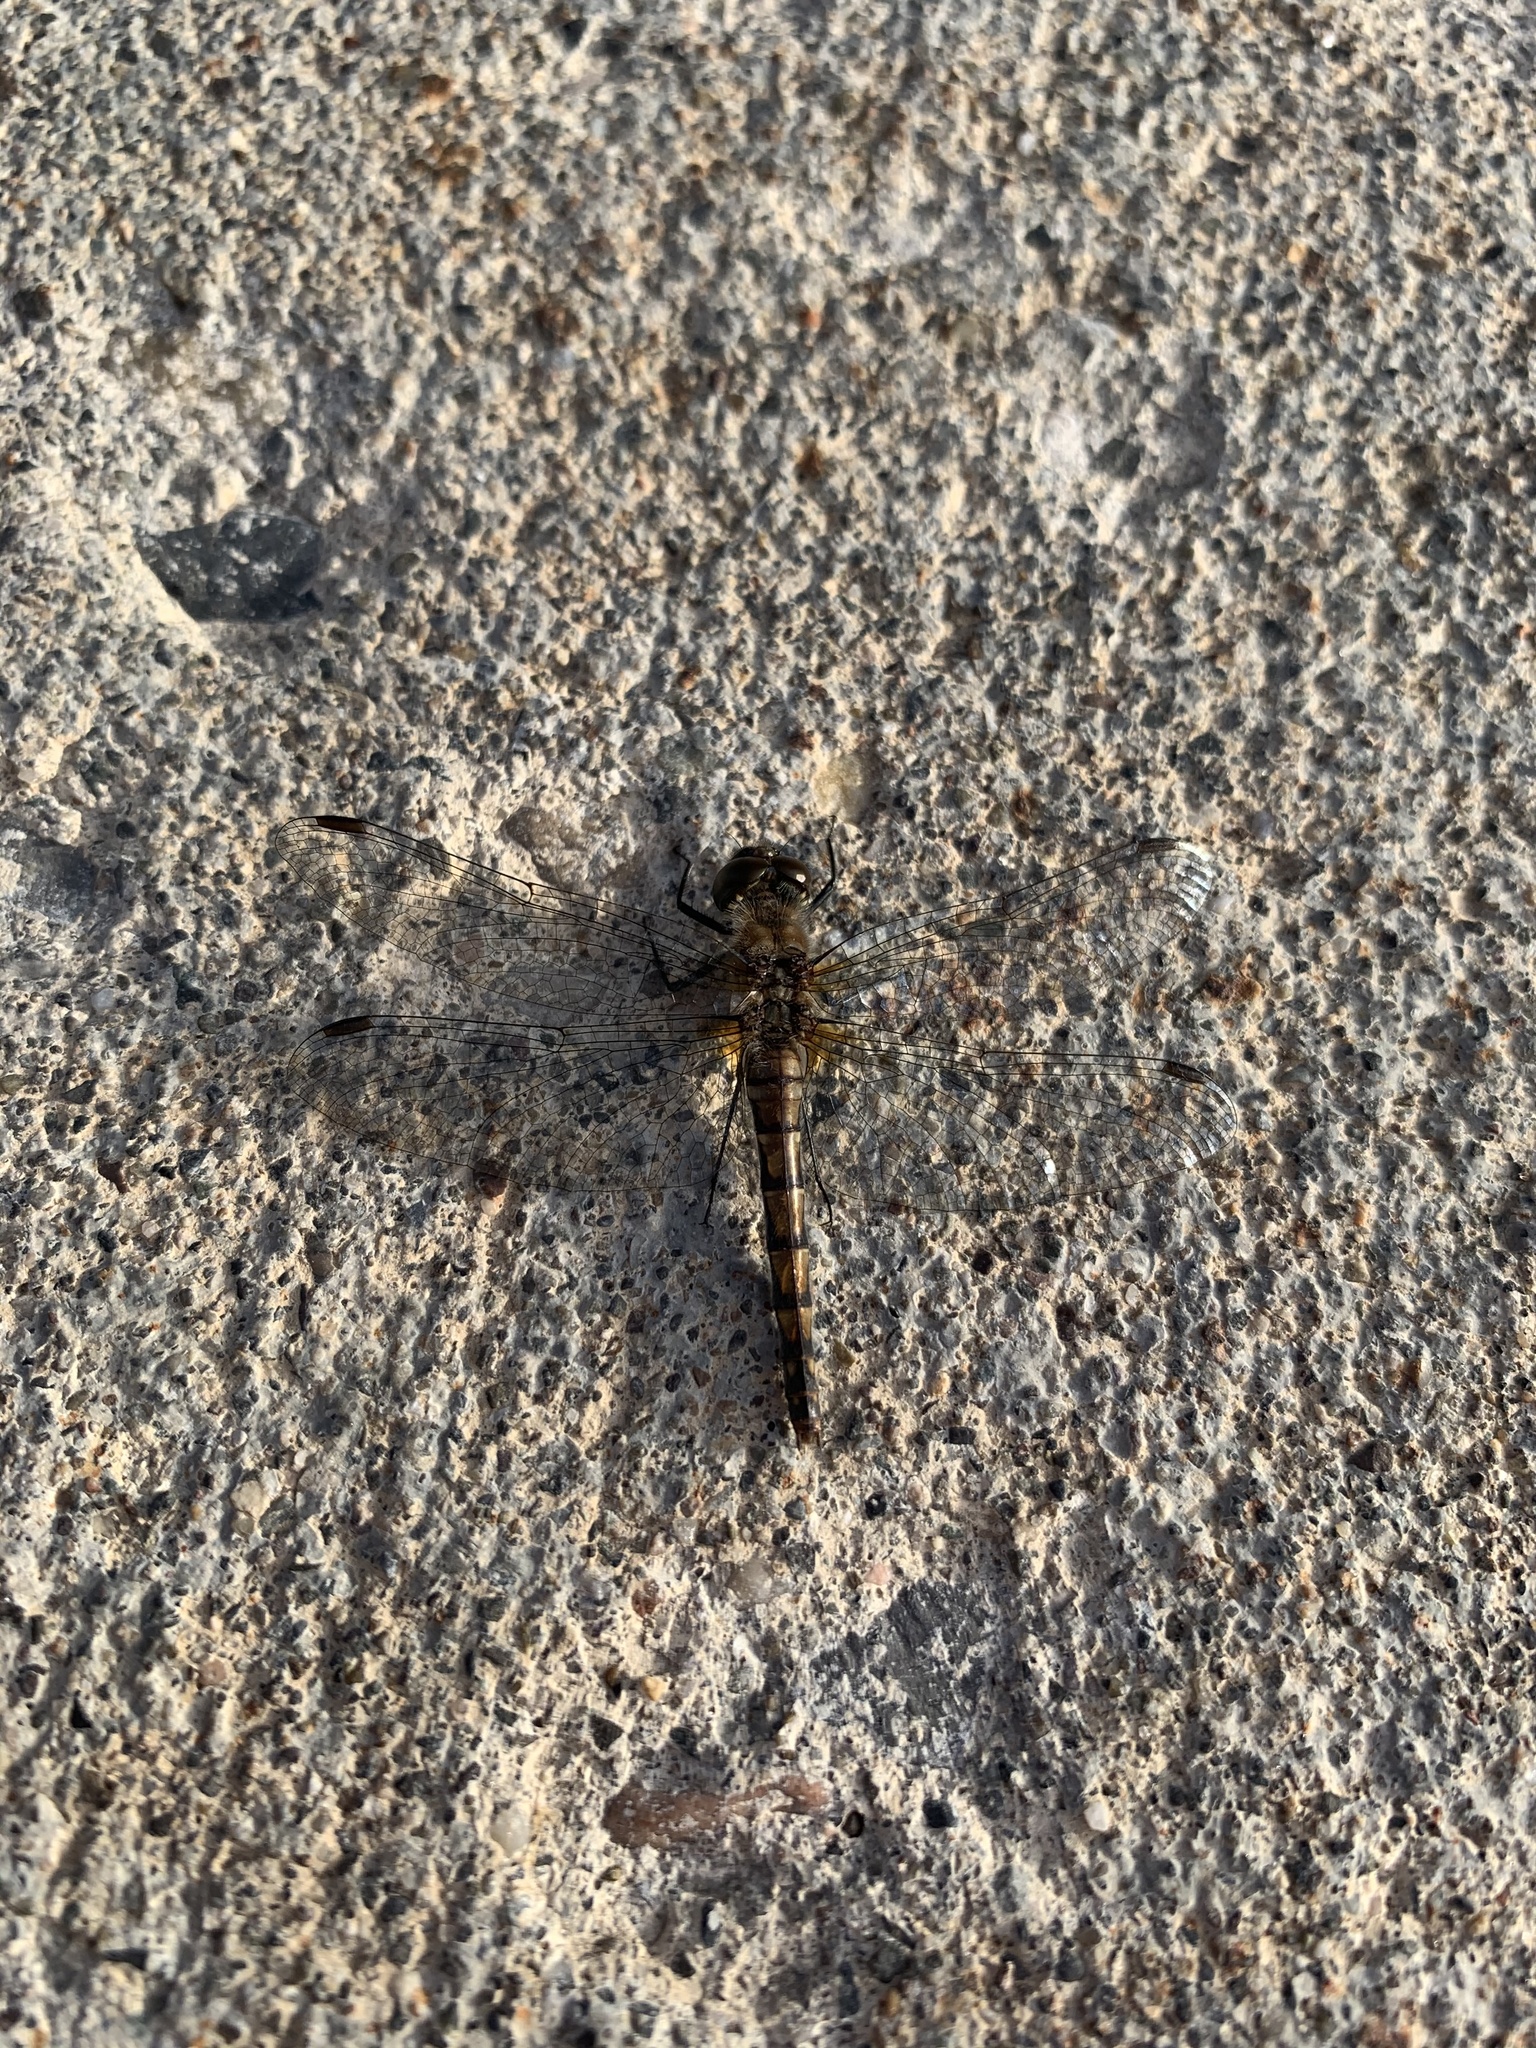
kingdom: Animalia
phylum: Arthropoda
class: Insecta
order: Odonata
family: Libellulidae
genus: Sympetrum
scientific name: Sympetrum danae
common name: Black darter
